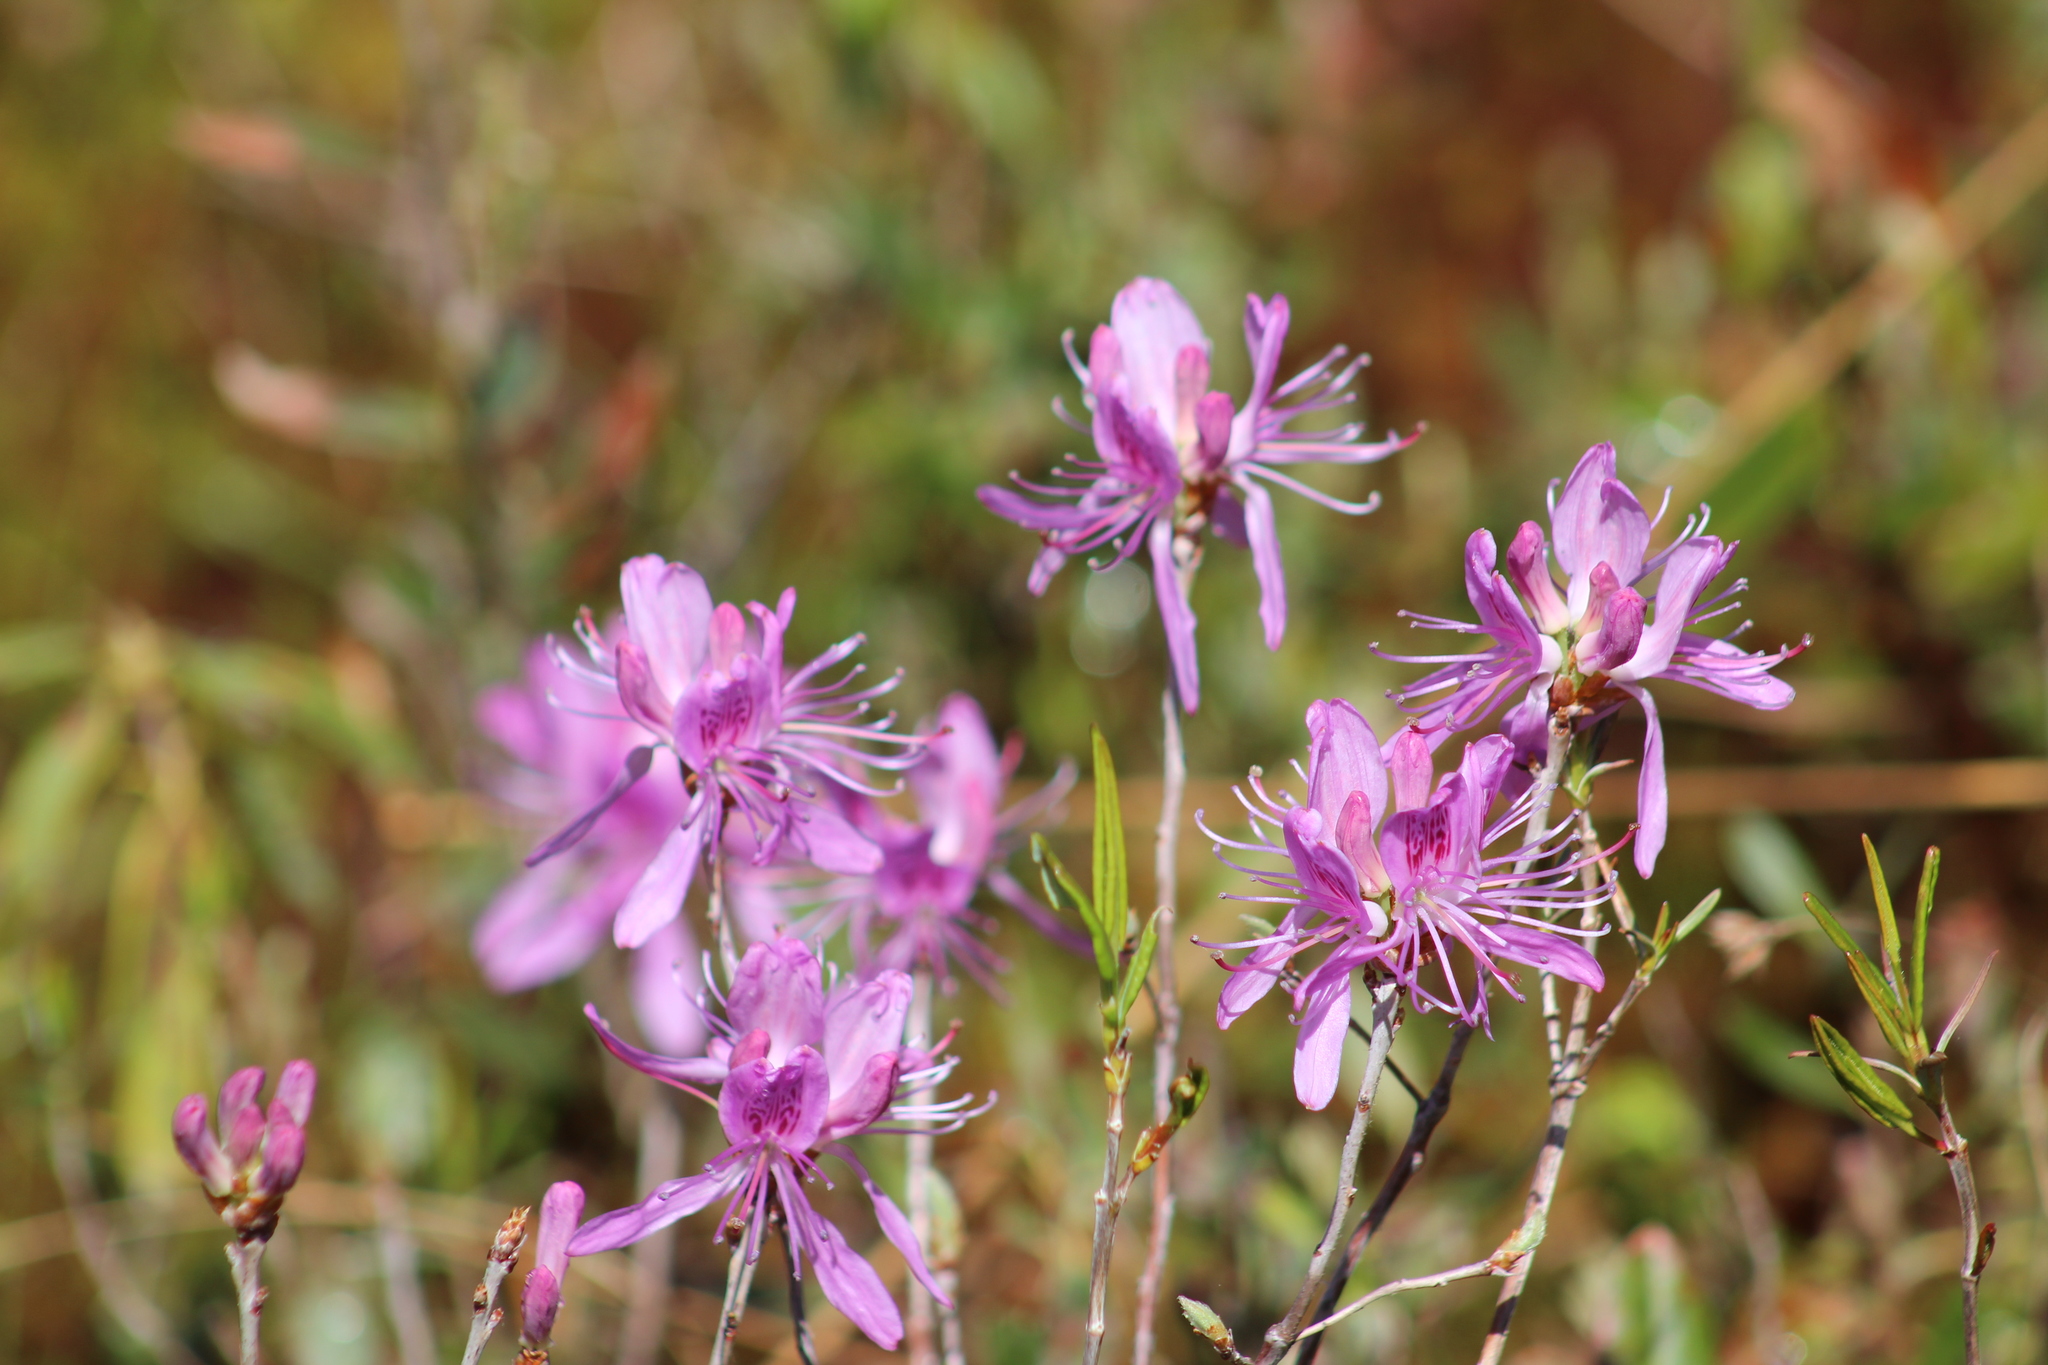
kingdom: Plantae
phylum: Tracheophyta
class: Magnoliopsida
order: Ericales
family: Ericaceae
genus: Rhododendron
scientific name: Rhododendron canadense
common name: Rhodora
